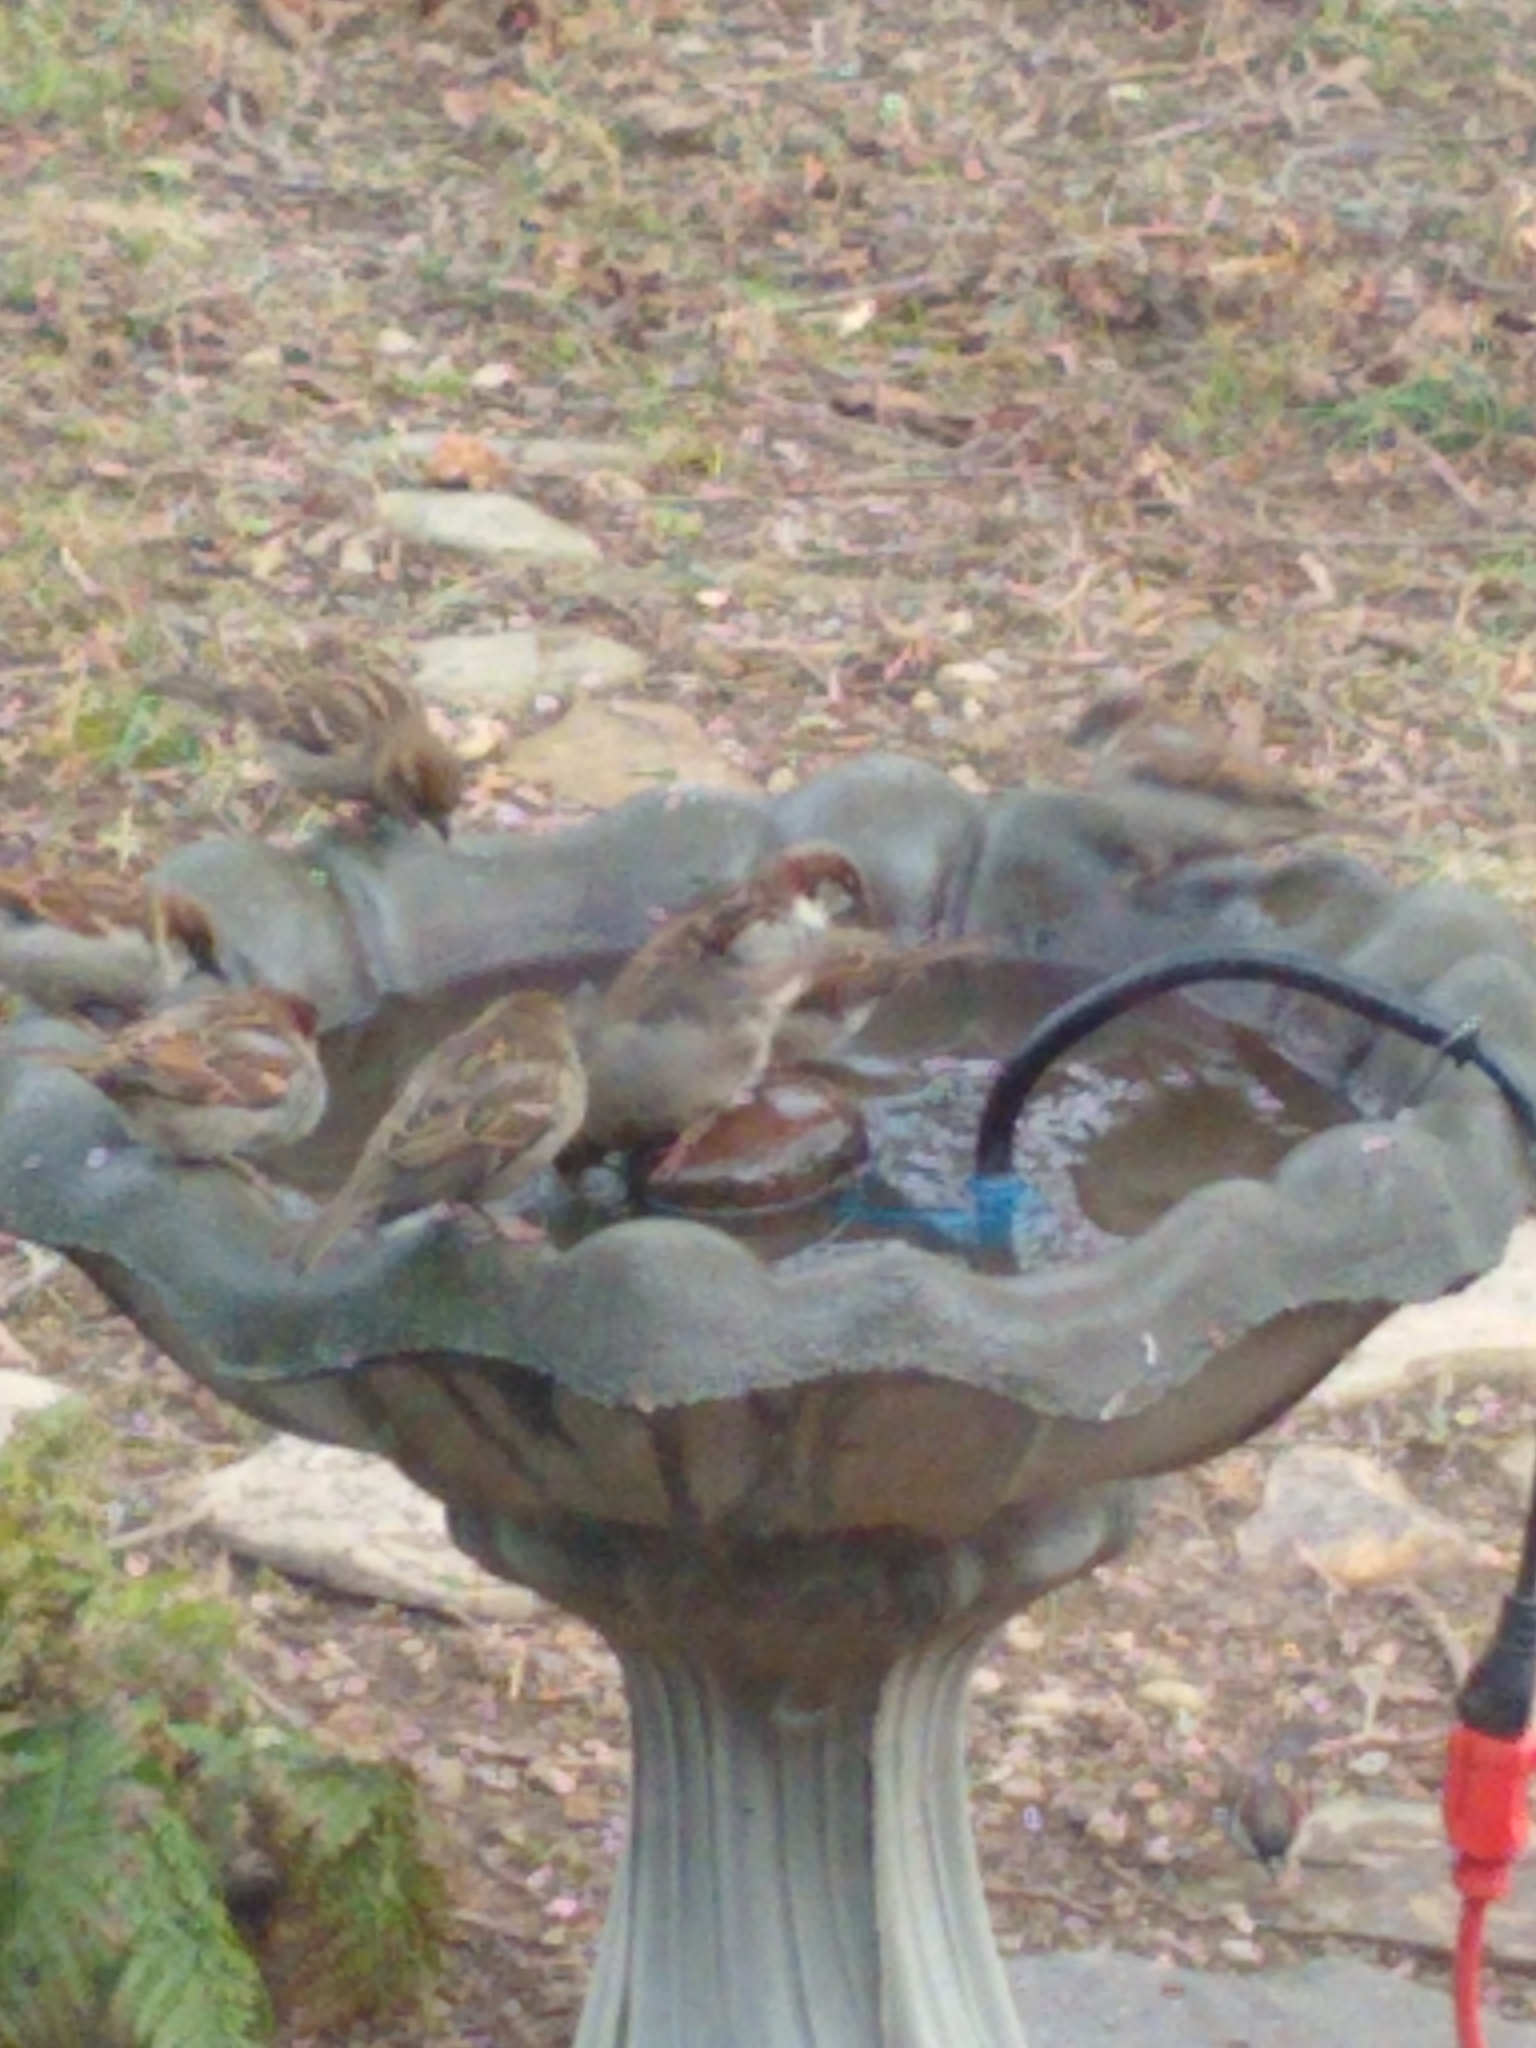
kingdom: Animalia
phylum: Chordata
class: Aves
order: Passeriformes
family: Passeridae
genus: Passer
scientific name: Passer domesticus
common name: House sparrow
